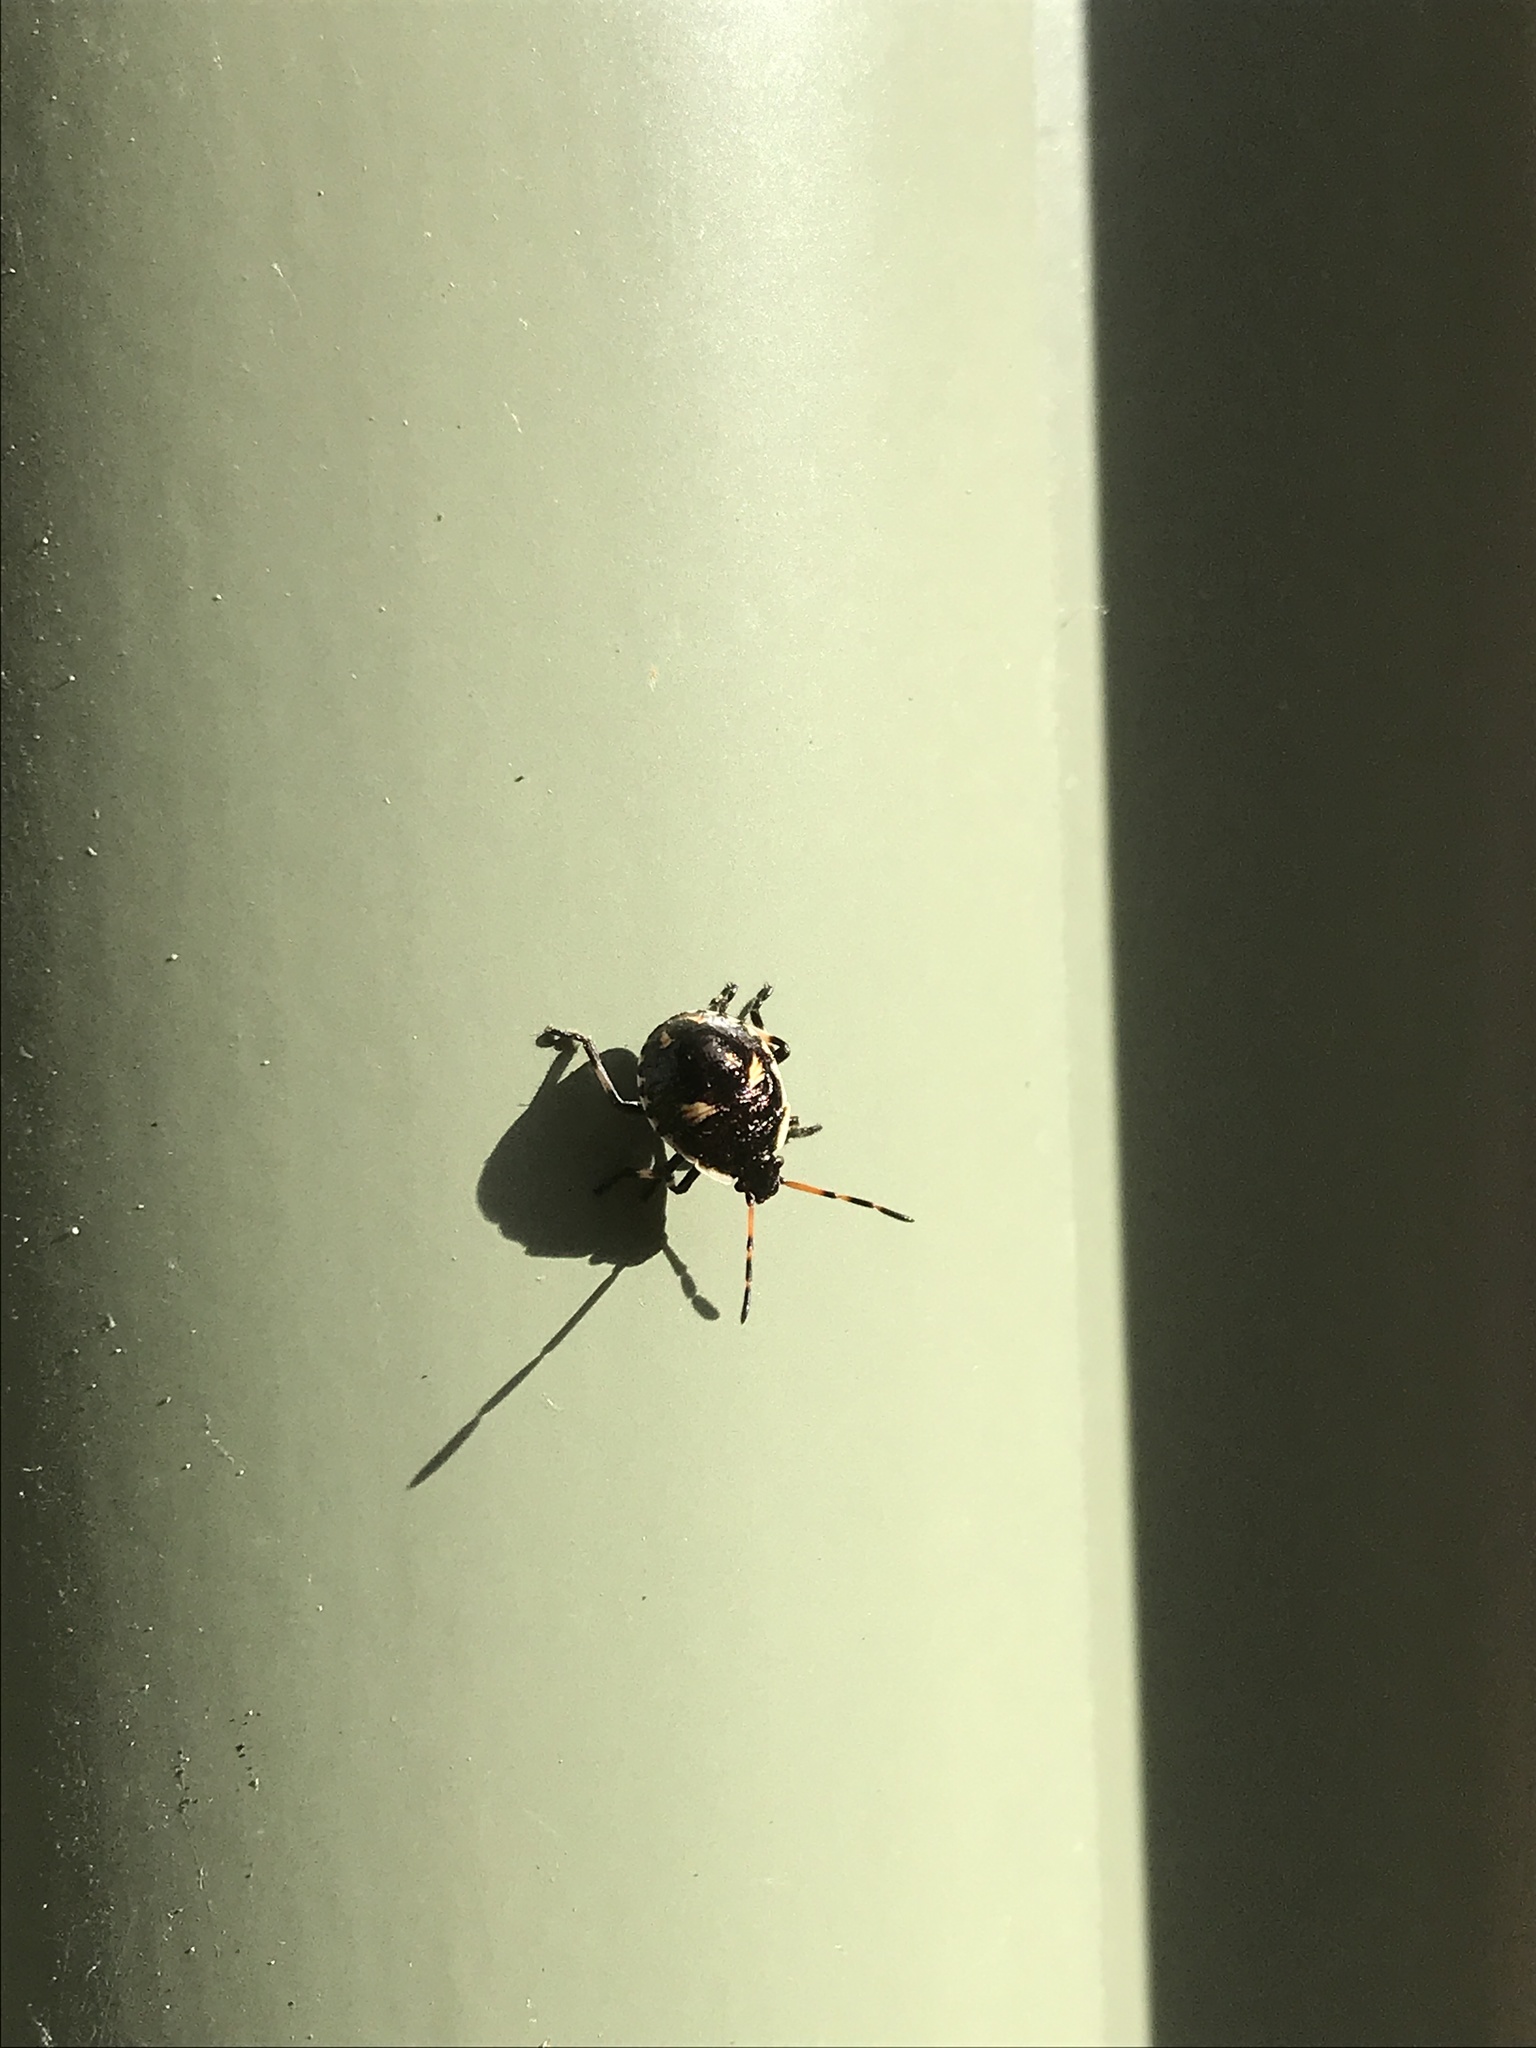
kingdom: Animalia
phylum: Arthropoda
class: Insecta
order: Hemiptera
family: Pentatomidae
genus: Cermatulus
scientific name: Cermatulus nasalis
